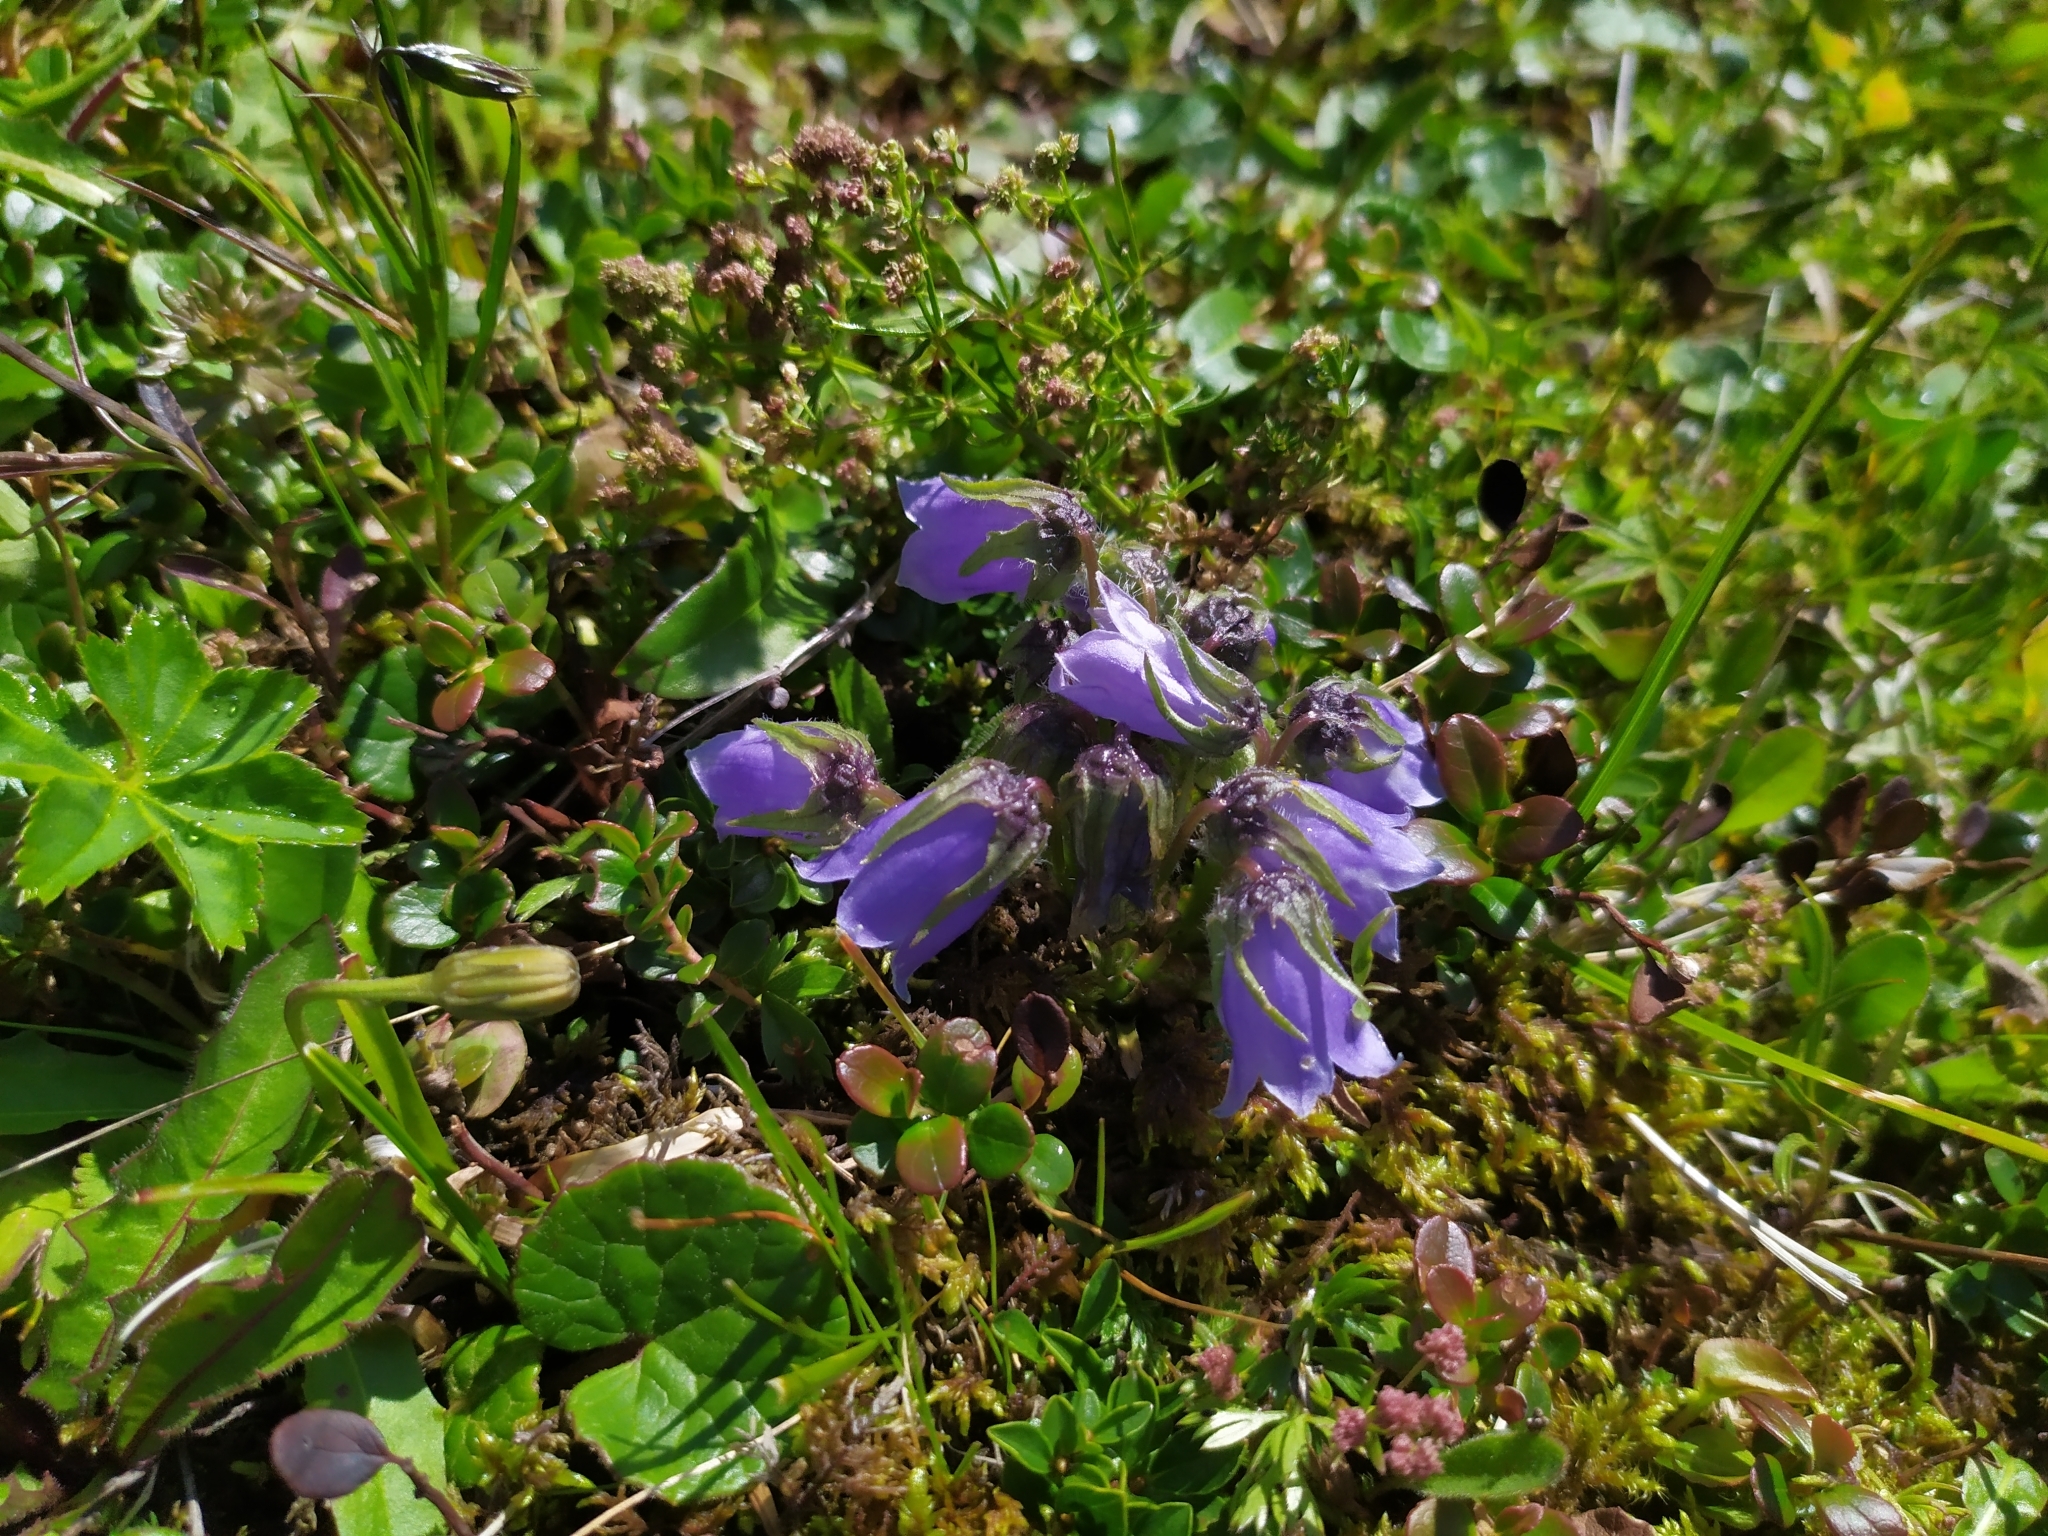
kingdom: Plantae
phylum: Tracheophyta
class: Magnoliopsida
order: Asterales
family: Campanulaceae
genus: Campanula
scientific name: Campanula alpina
